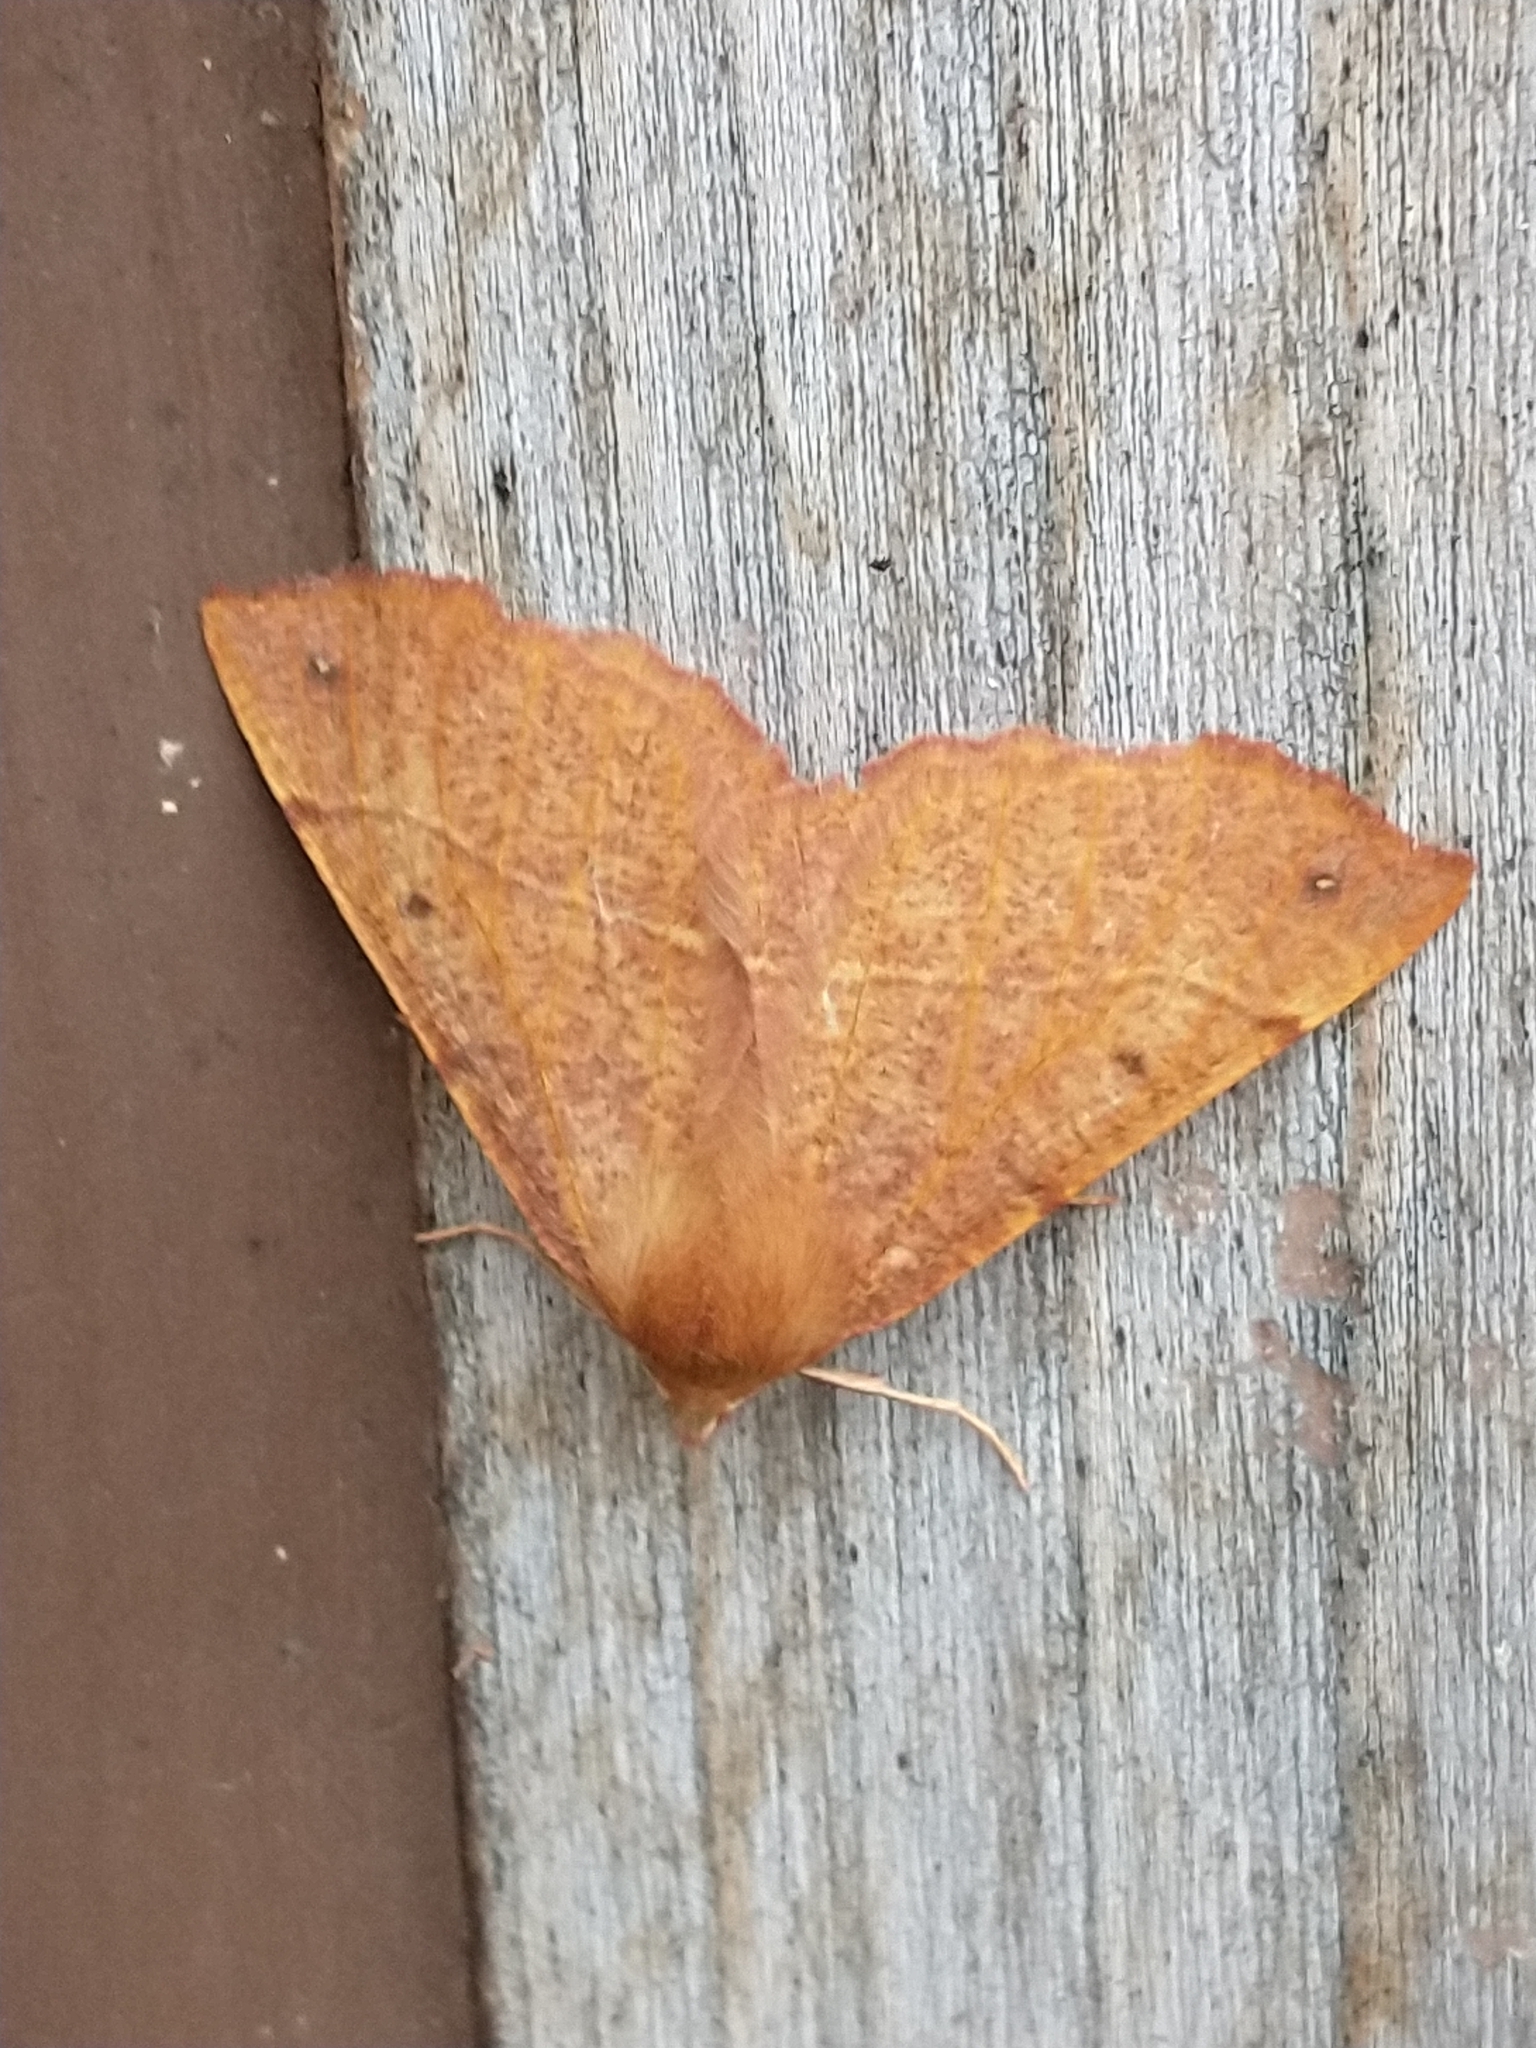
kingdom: Animalia
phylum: Arthropoda
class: Insecta
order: Lepidoptera
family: Geometridae
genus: Colotois
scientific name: Colotois pennaria
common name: Feathered thorn
